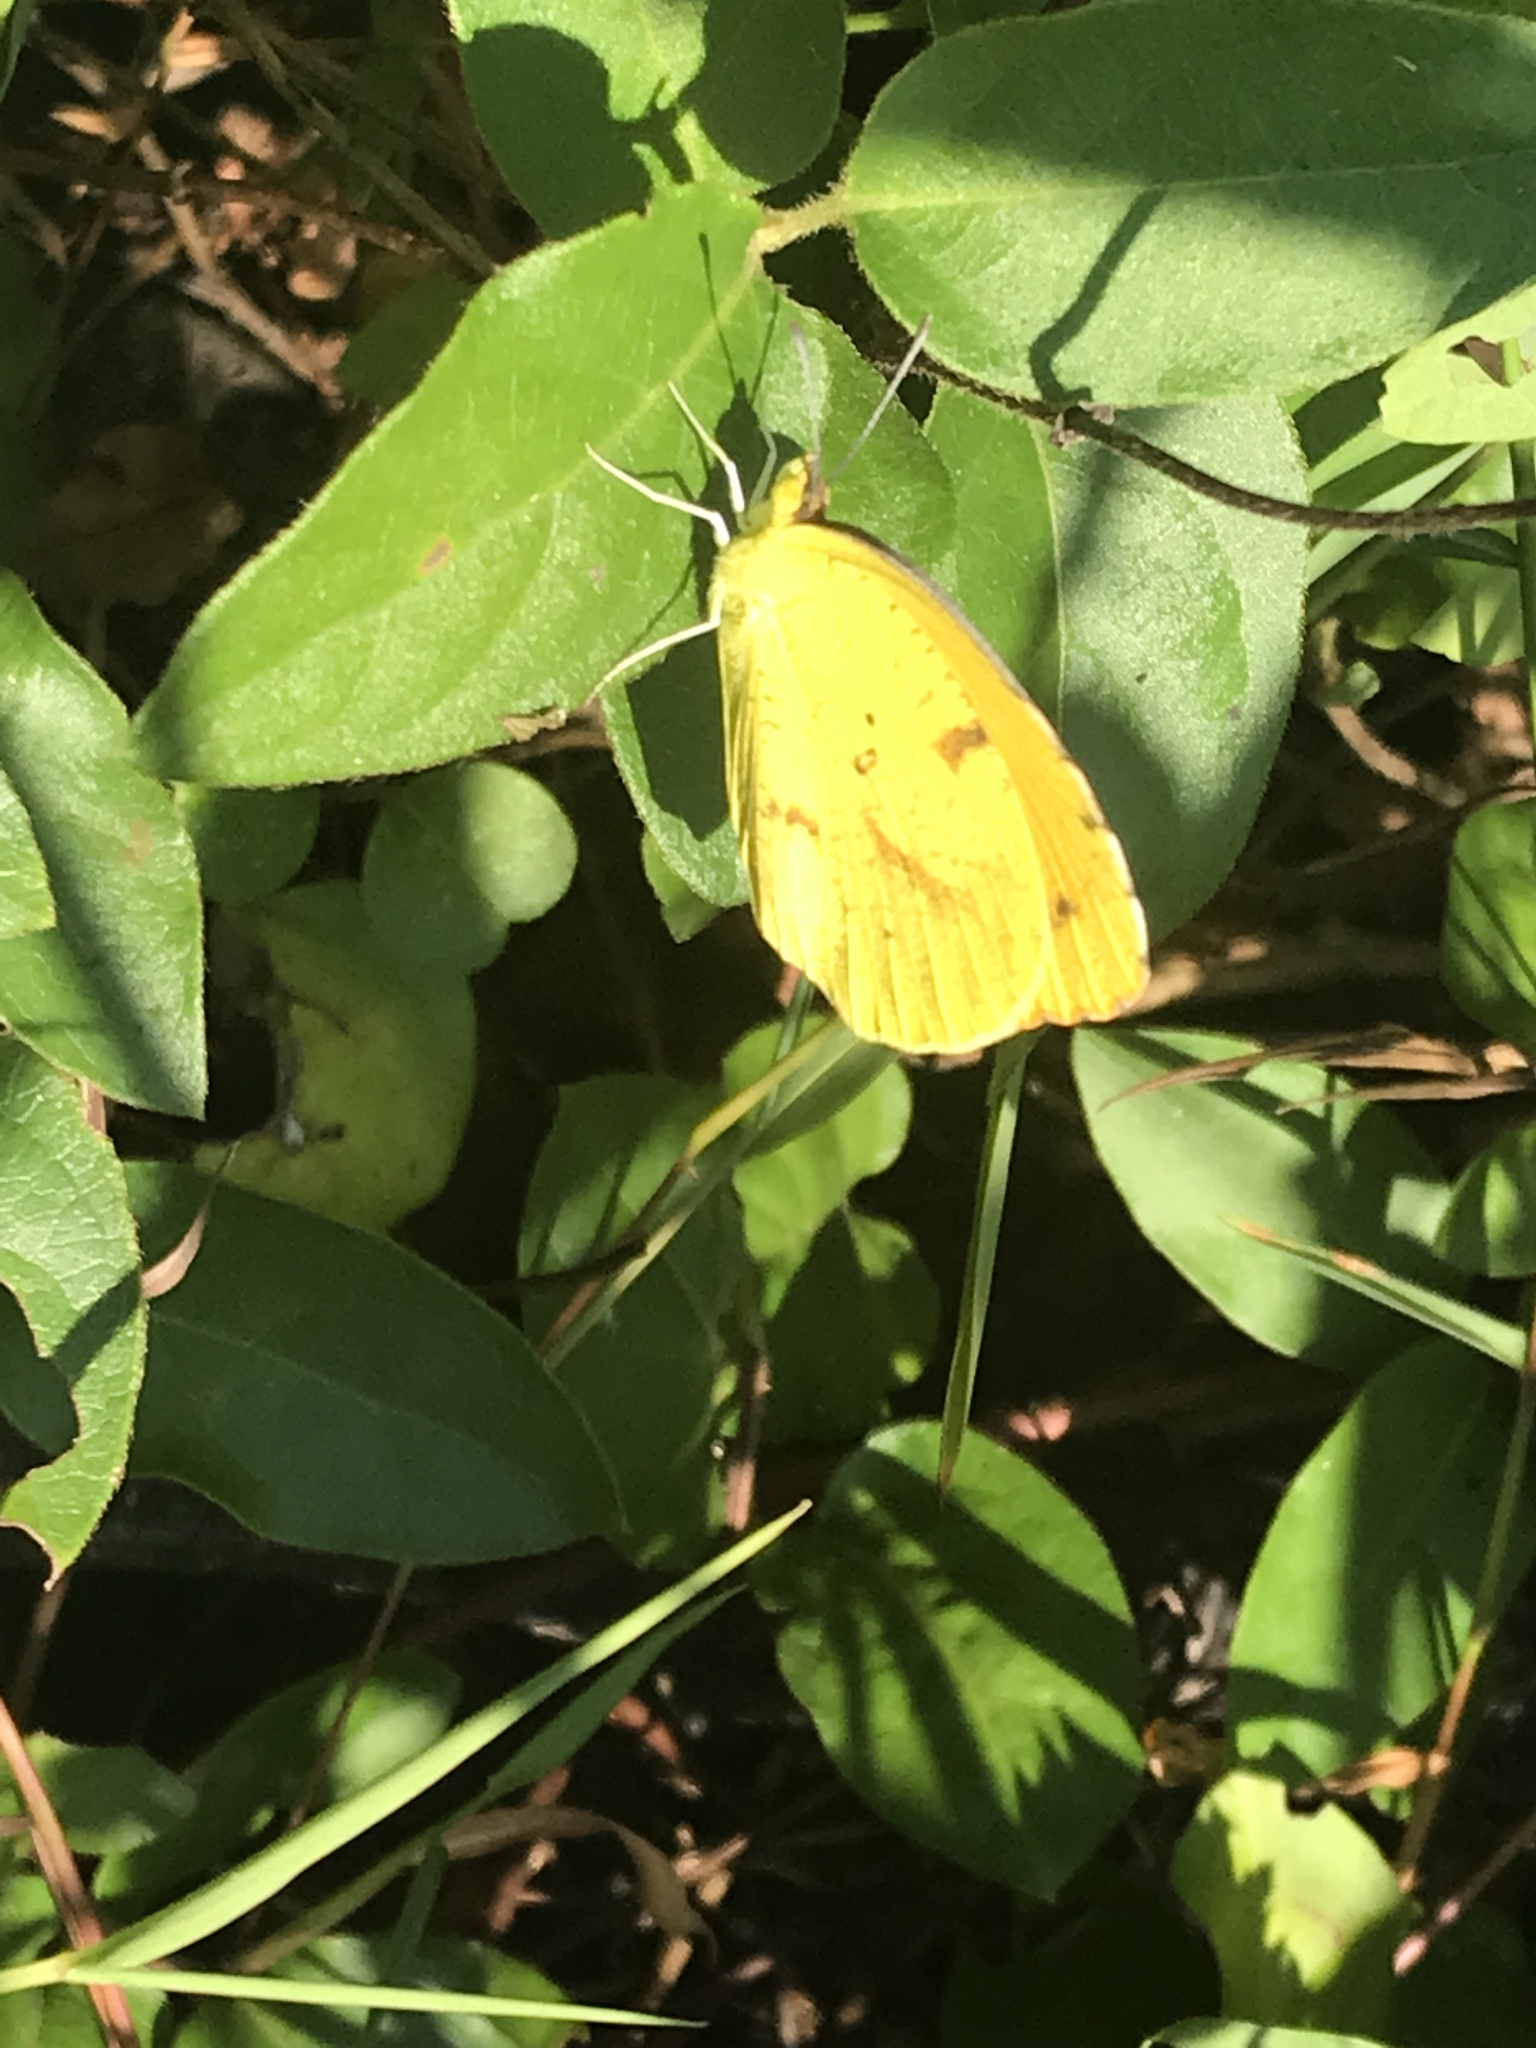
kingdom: Animalia
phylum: Arthropoda
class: Insecta
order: Lepidoptera
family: Pieridae
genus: Abaeis
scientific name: Abaeis nicippe
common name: Sleepy orange
